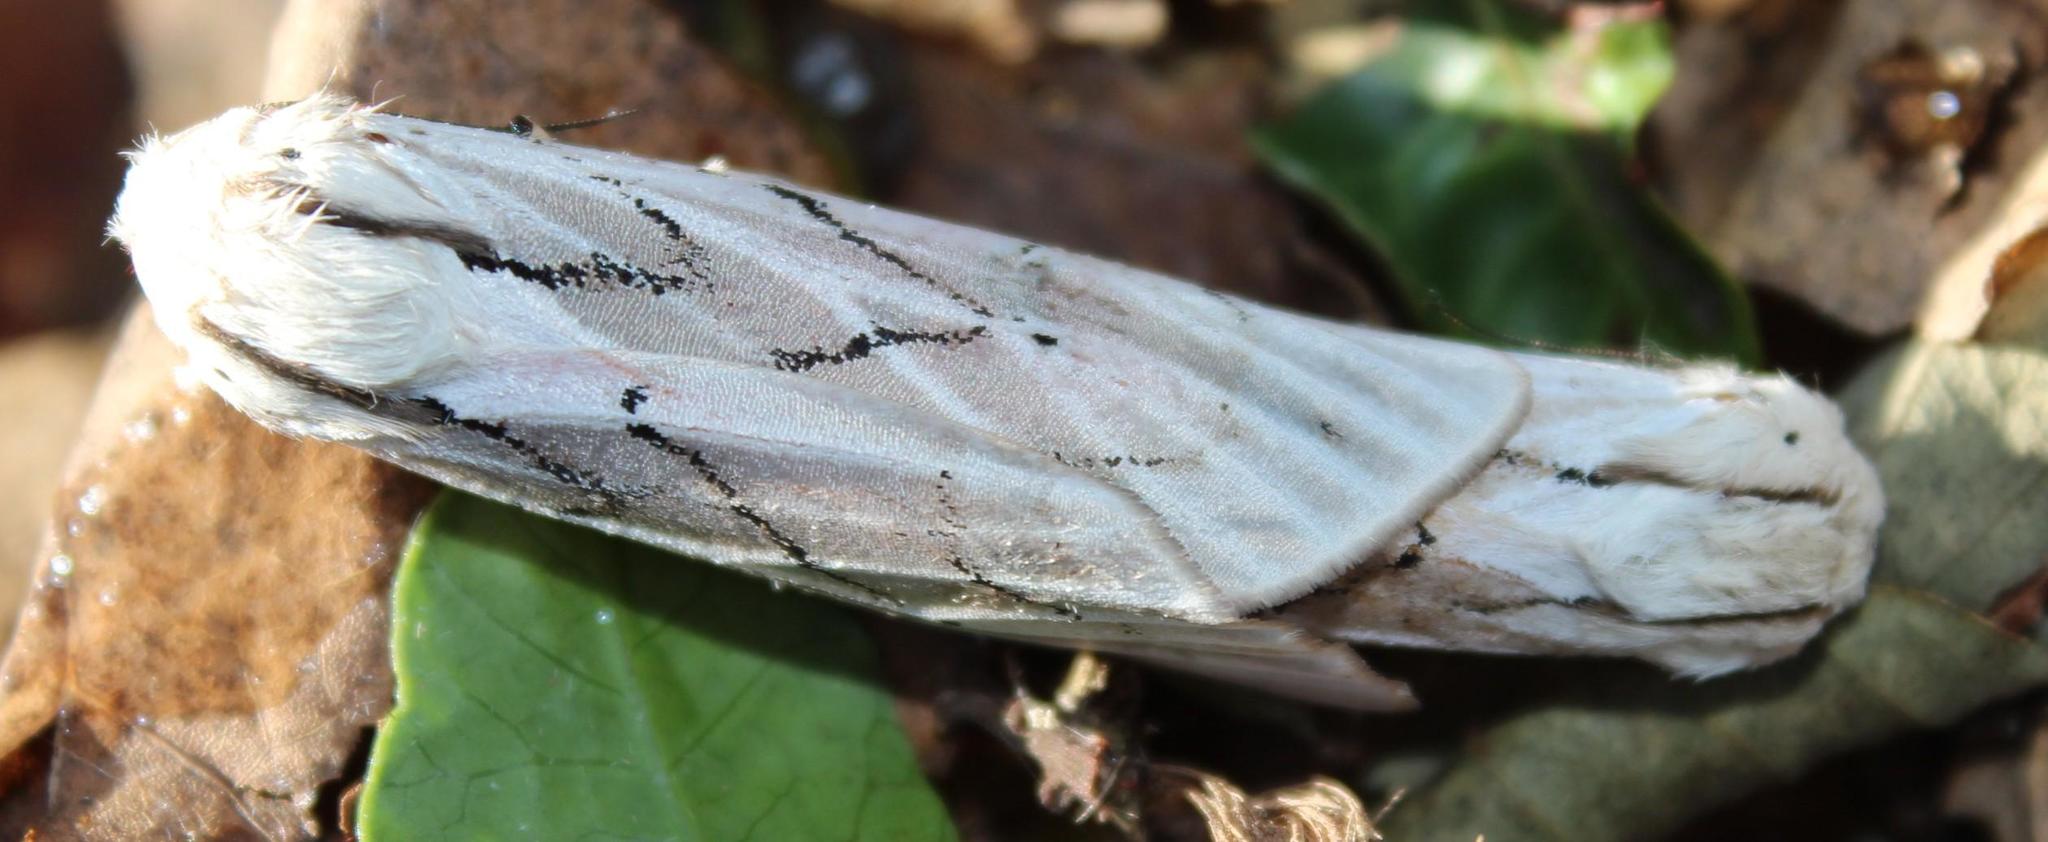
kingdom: Animalia
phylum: Arthropoda
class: Insecta
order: Lepidoptera
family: Erebidae
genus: Rhodogastria
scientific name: Rhodogastria amasis
